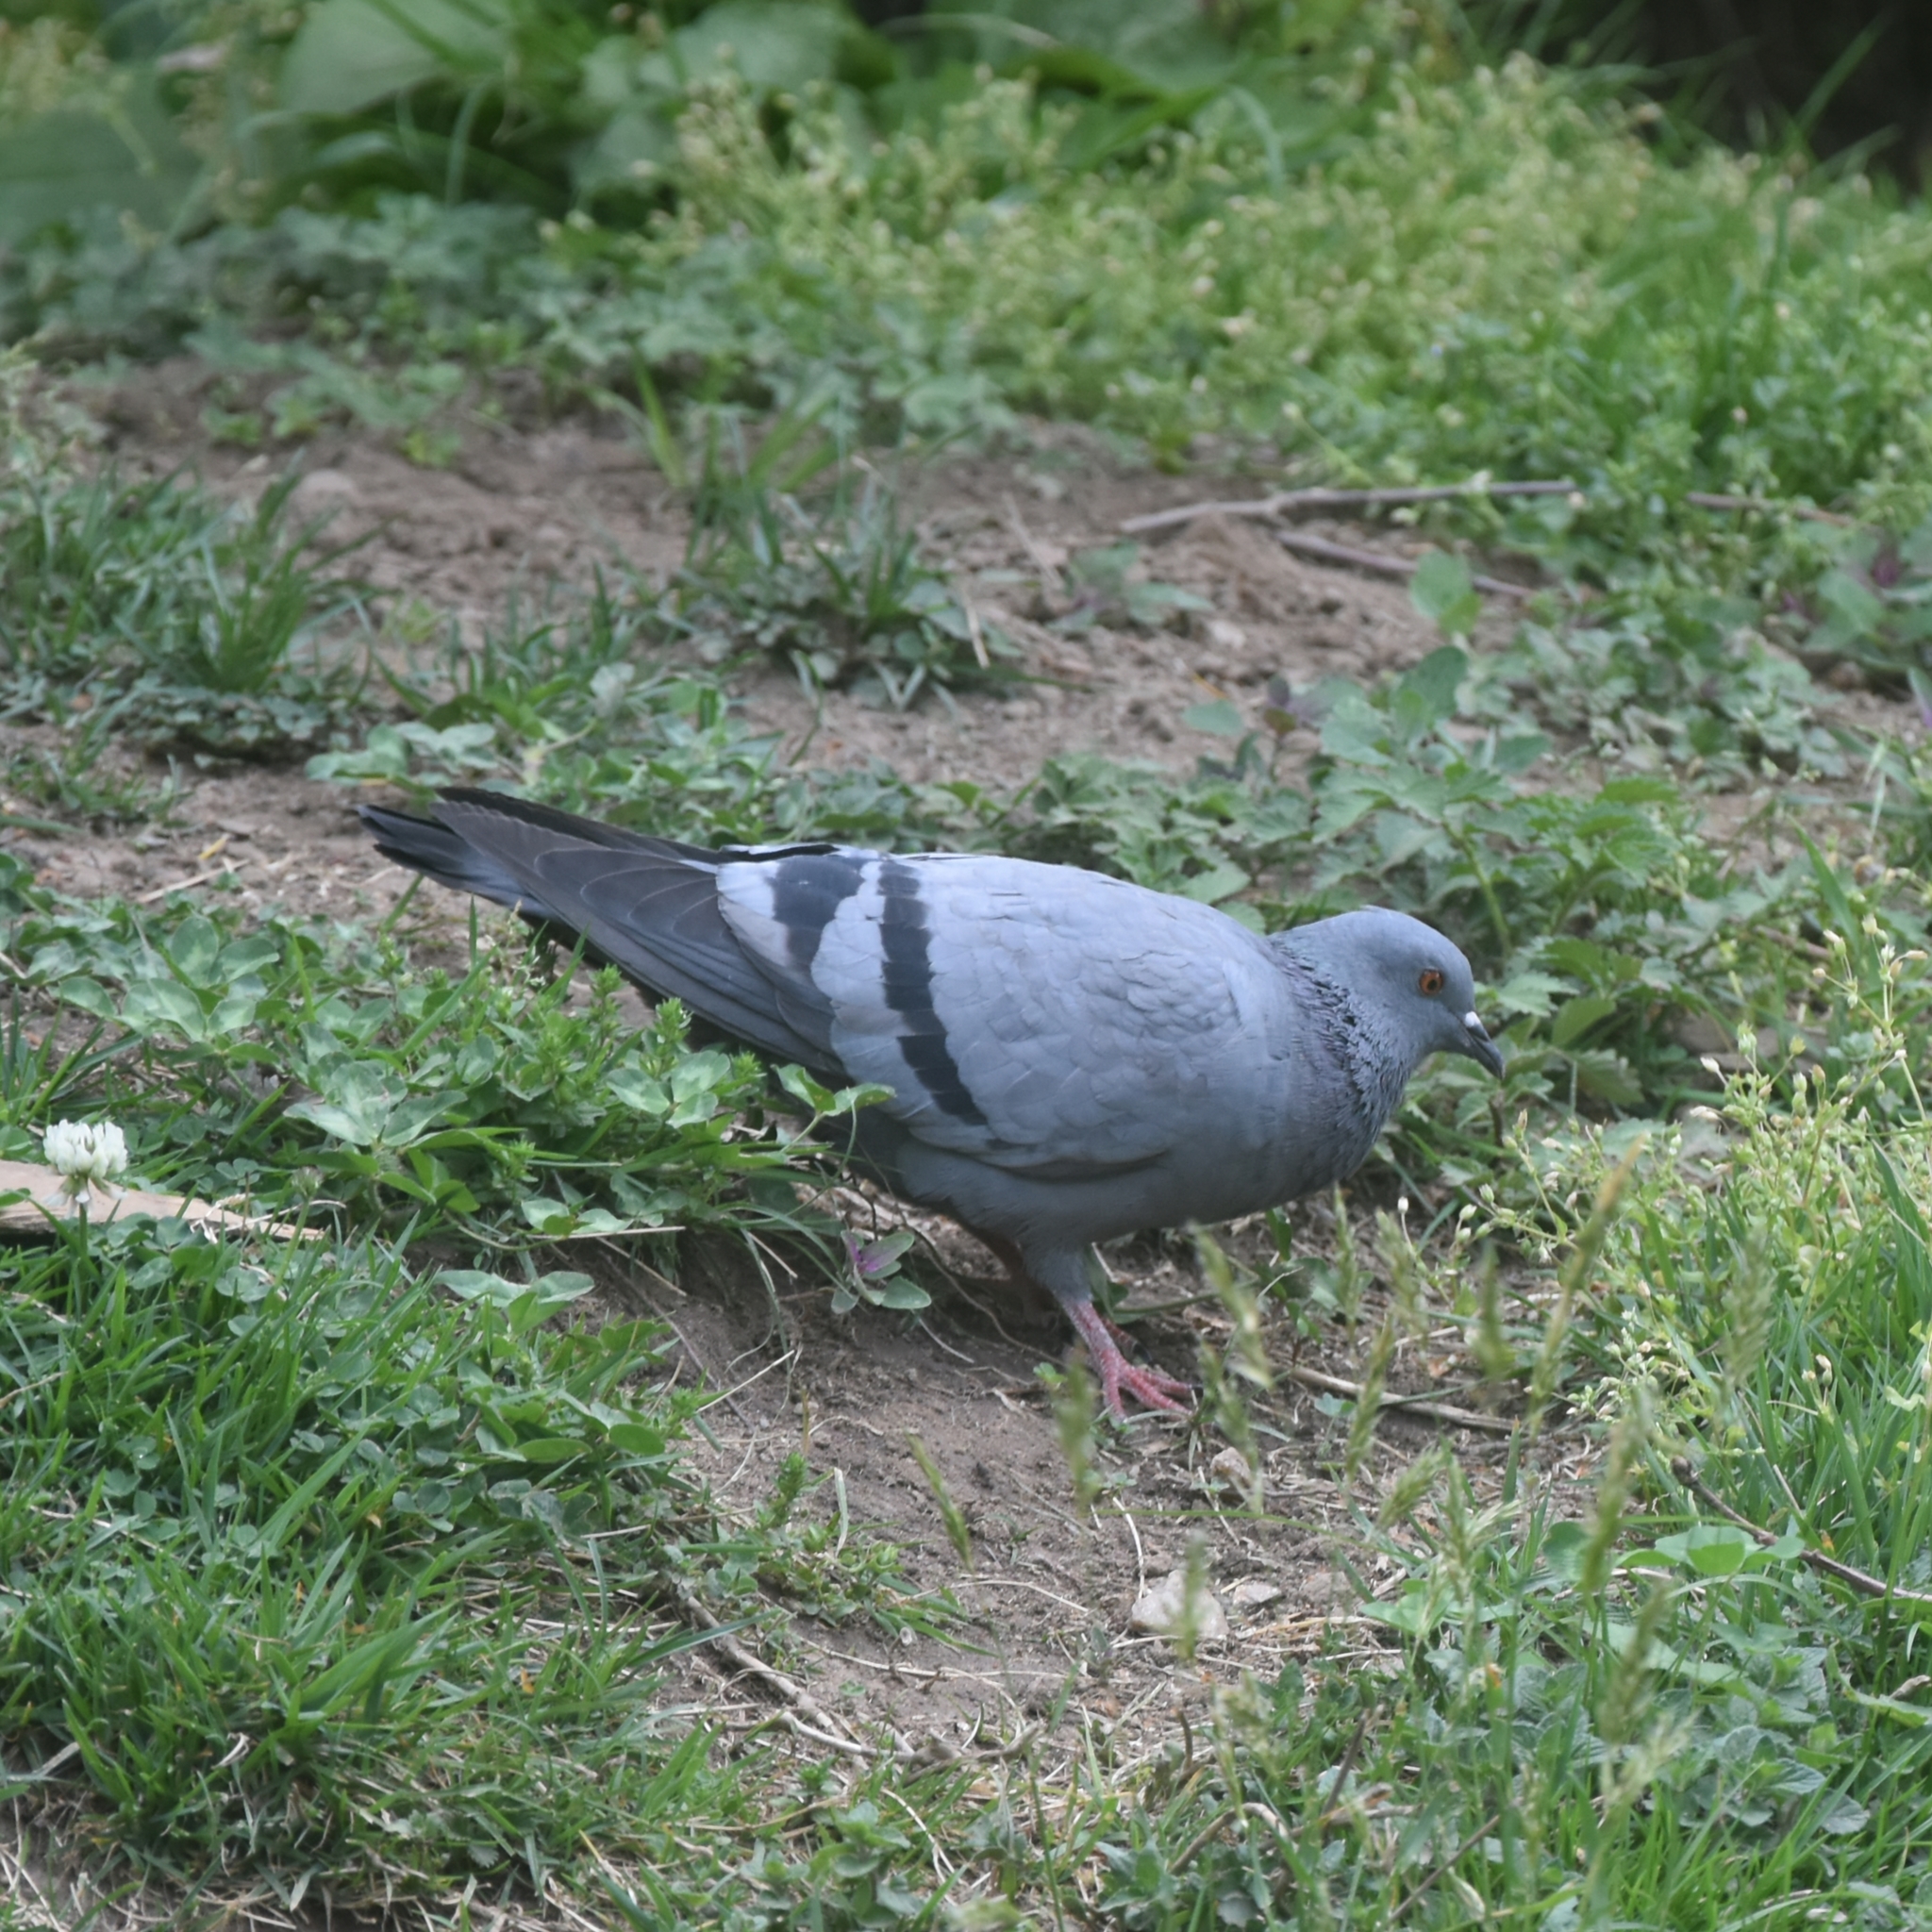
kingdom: Animalia
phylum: Chordata
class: Aves
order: Columbiformes
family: Columbidae
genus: Columba
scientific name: Columba livia
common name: Rock pigeon
